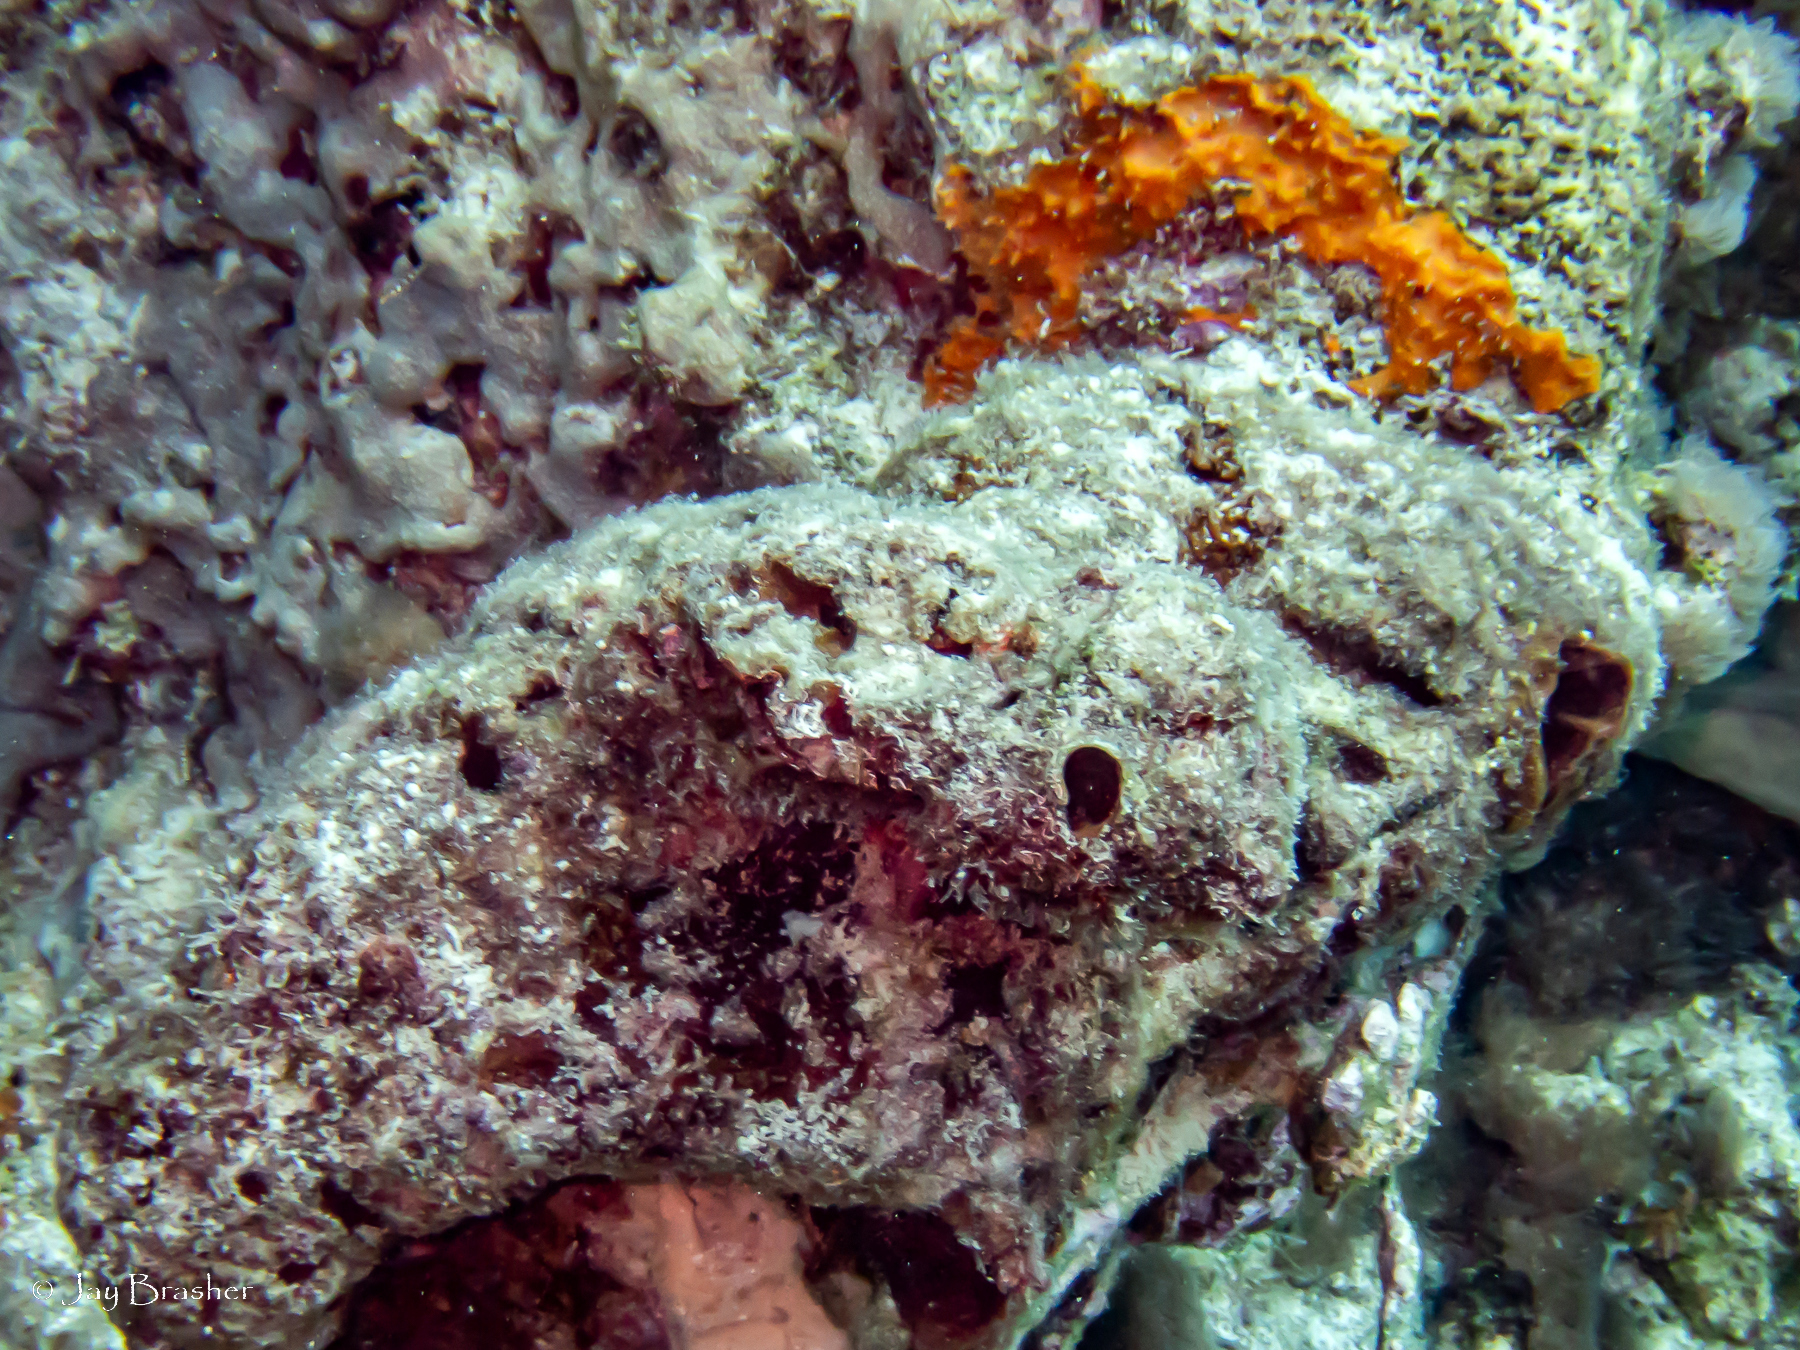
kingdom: Animalia
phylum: Porifera
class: Demospongiae
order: Scopalinida
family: Scopalinidae
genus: Scopalina
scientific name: Scopalina ruetzleri
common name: Orange lumpy encrusting sponge
